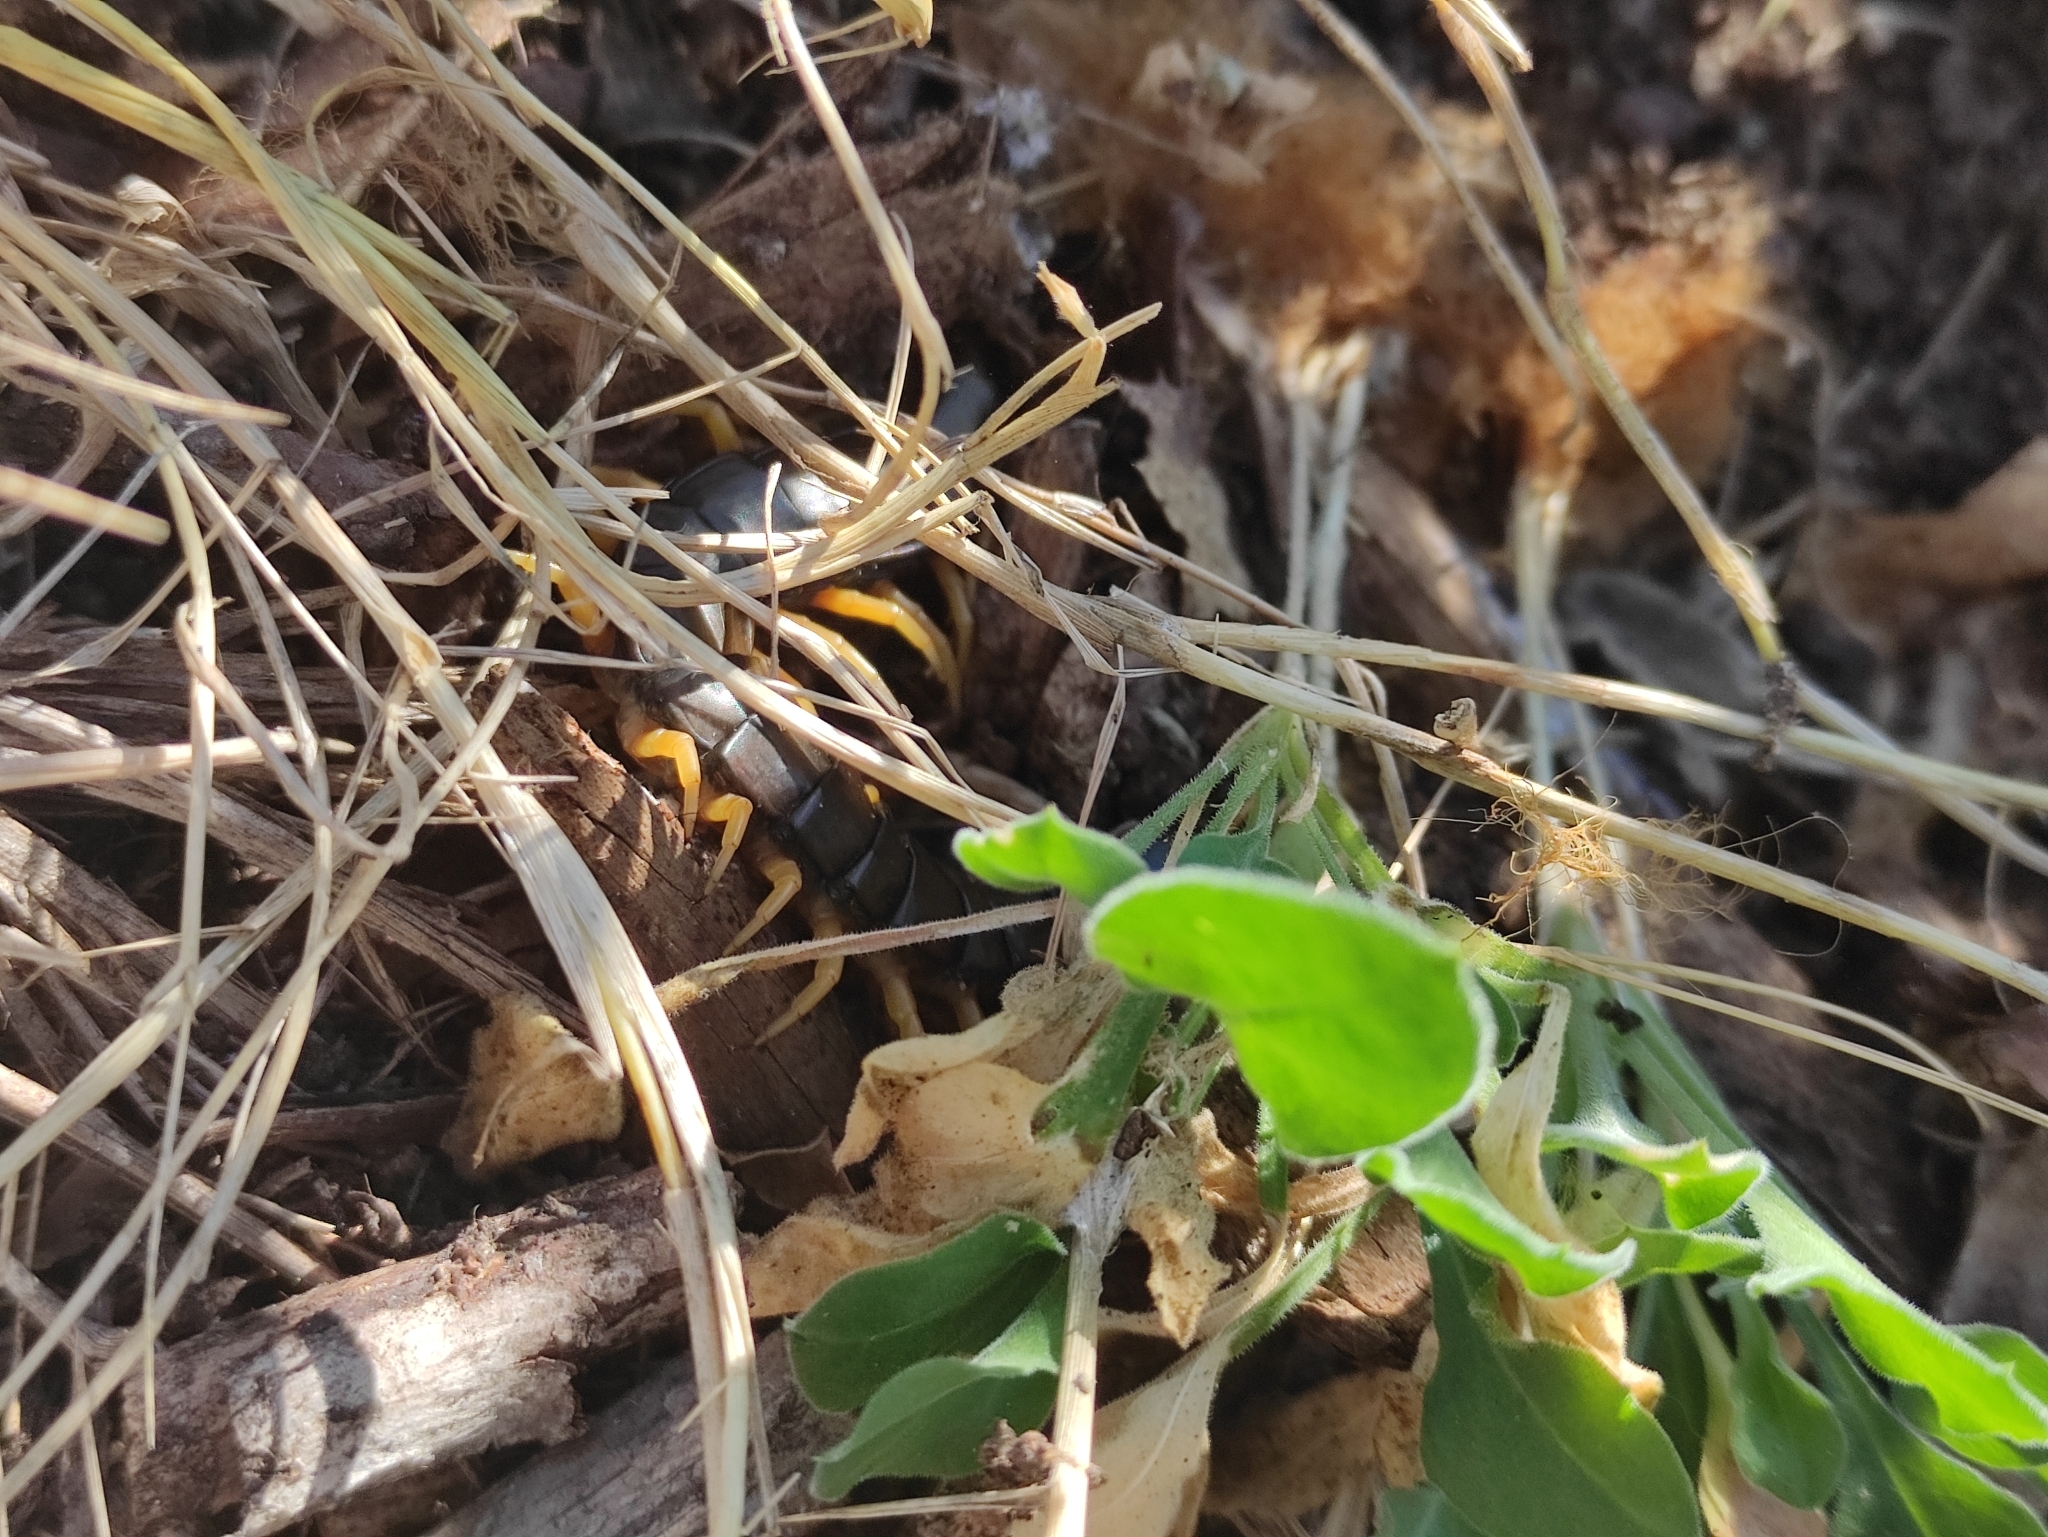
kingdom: Animalia
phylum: Arthropoda
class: Chilopoda
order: Scolopendromorpha
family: Scolopendridae
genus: Scolopendra
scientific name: Scolopendra cingulata
